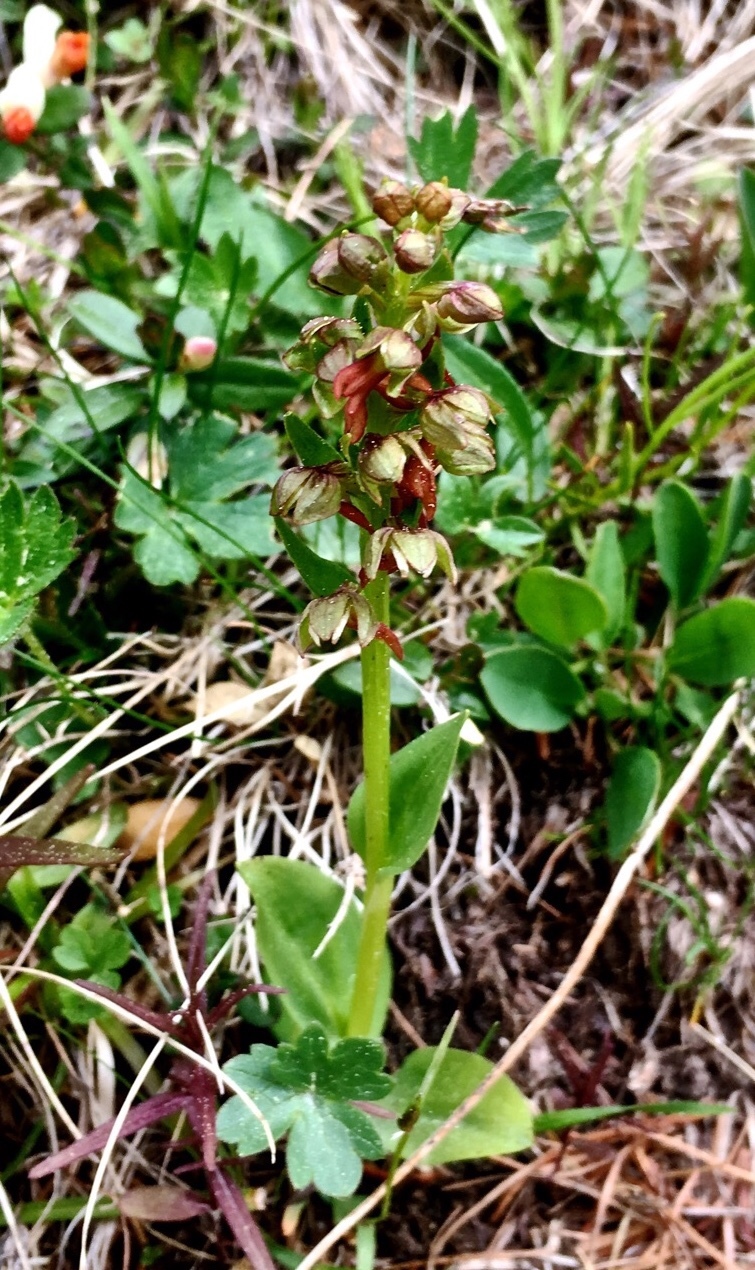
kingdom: Plantae
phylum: Tracheophyta
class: Liliopsida
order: Asparagales
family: Orchidaceae
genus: Dactylorhiza
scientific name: Dactylorhiza viridis
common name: Longbract frog orchid
